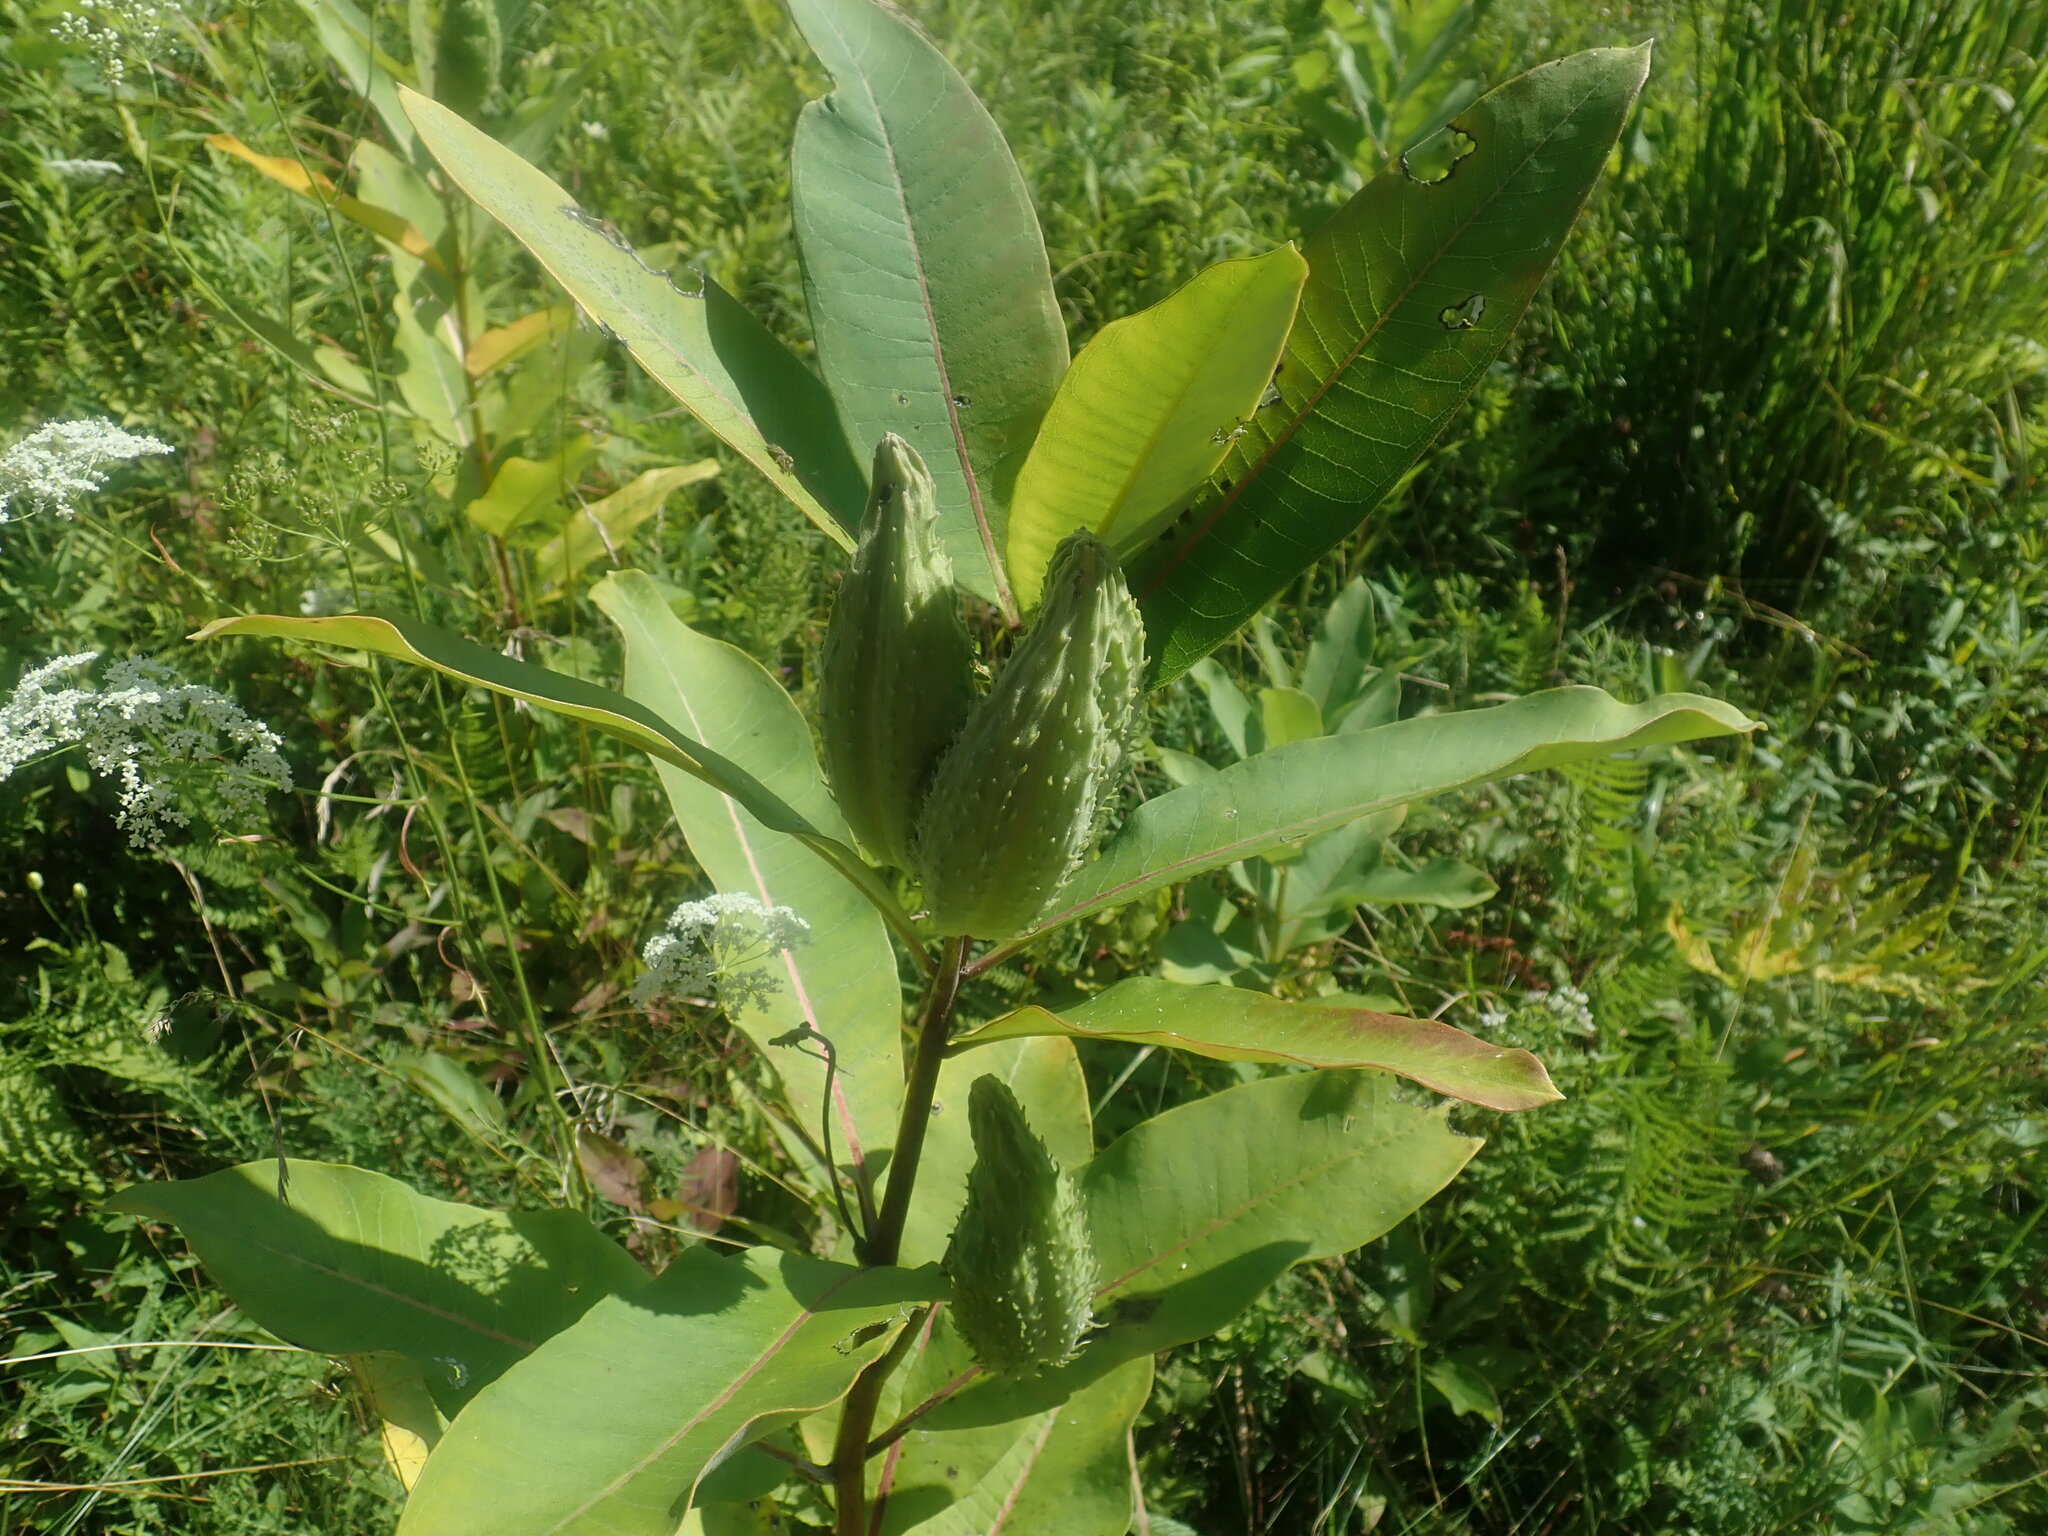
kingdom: Plantae
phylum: Tracheophyta
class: Magnoliopsida
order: Gentianales
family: Apocynaceae
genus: Asclepias
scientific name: Asclepias syriaca
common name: Common milkweed
